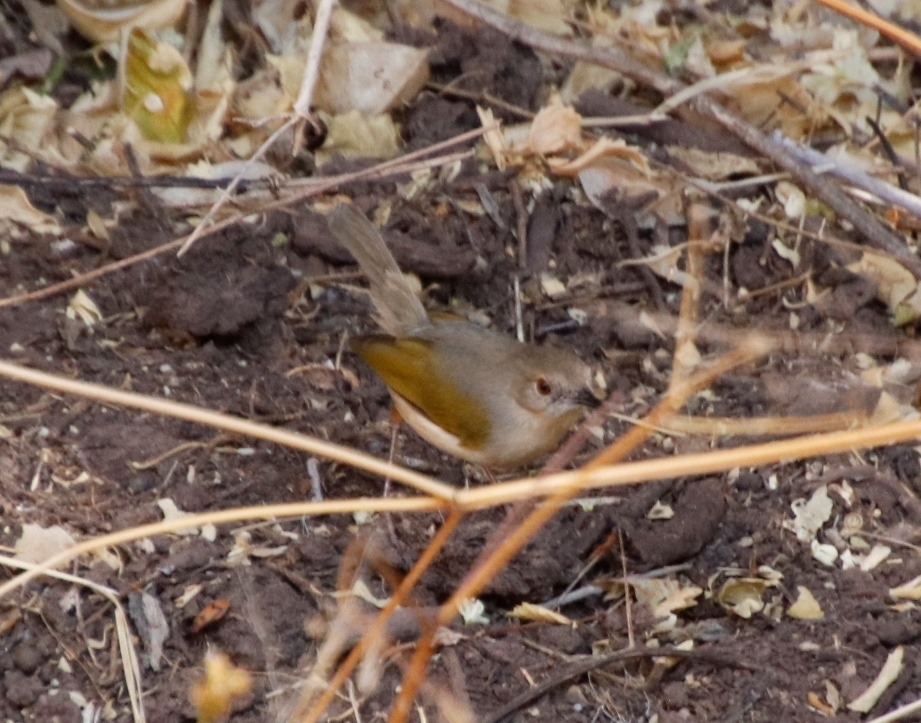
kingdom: Animalia
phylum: Chordata
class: Aves
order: Passeriformes
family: Cisticolidae
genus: Camaroptera
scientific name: Camaroptera brachyura
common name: Green-backed camaroptera
